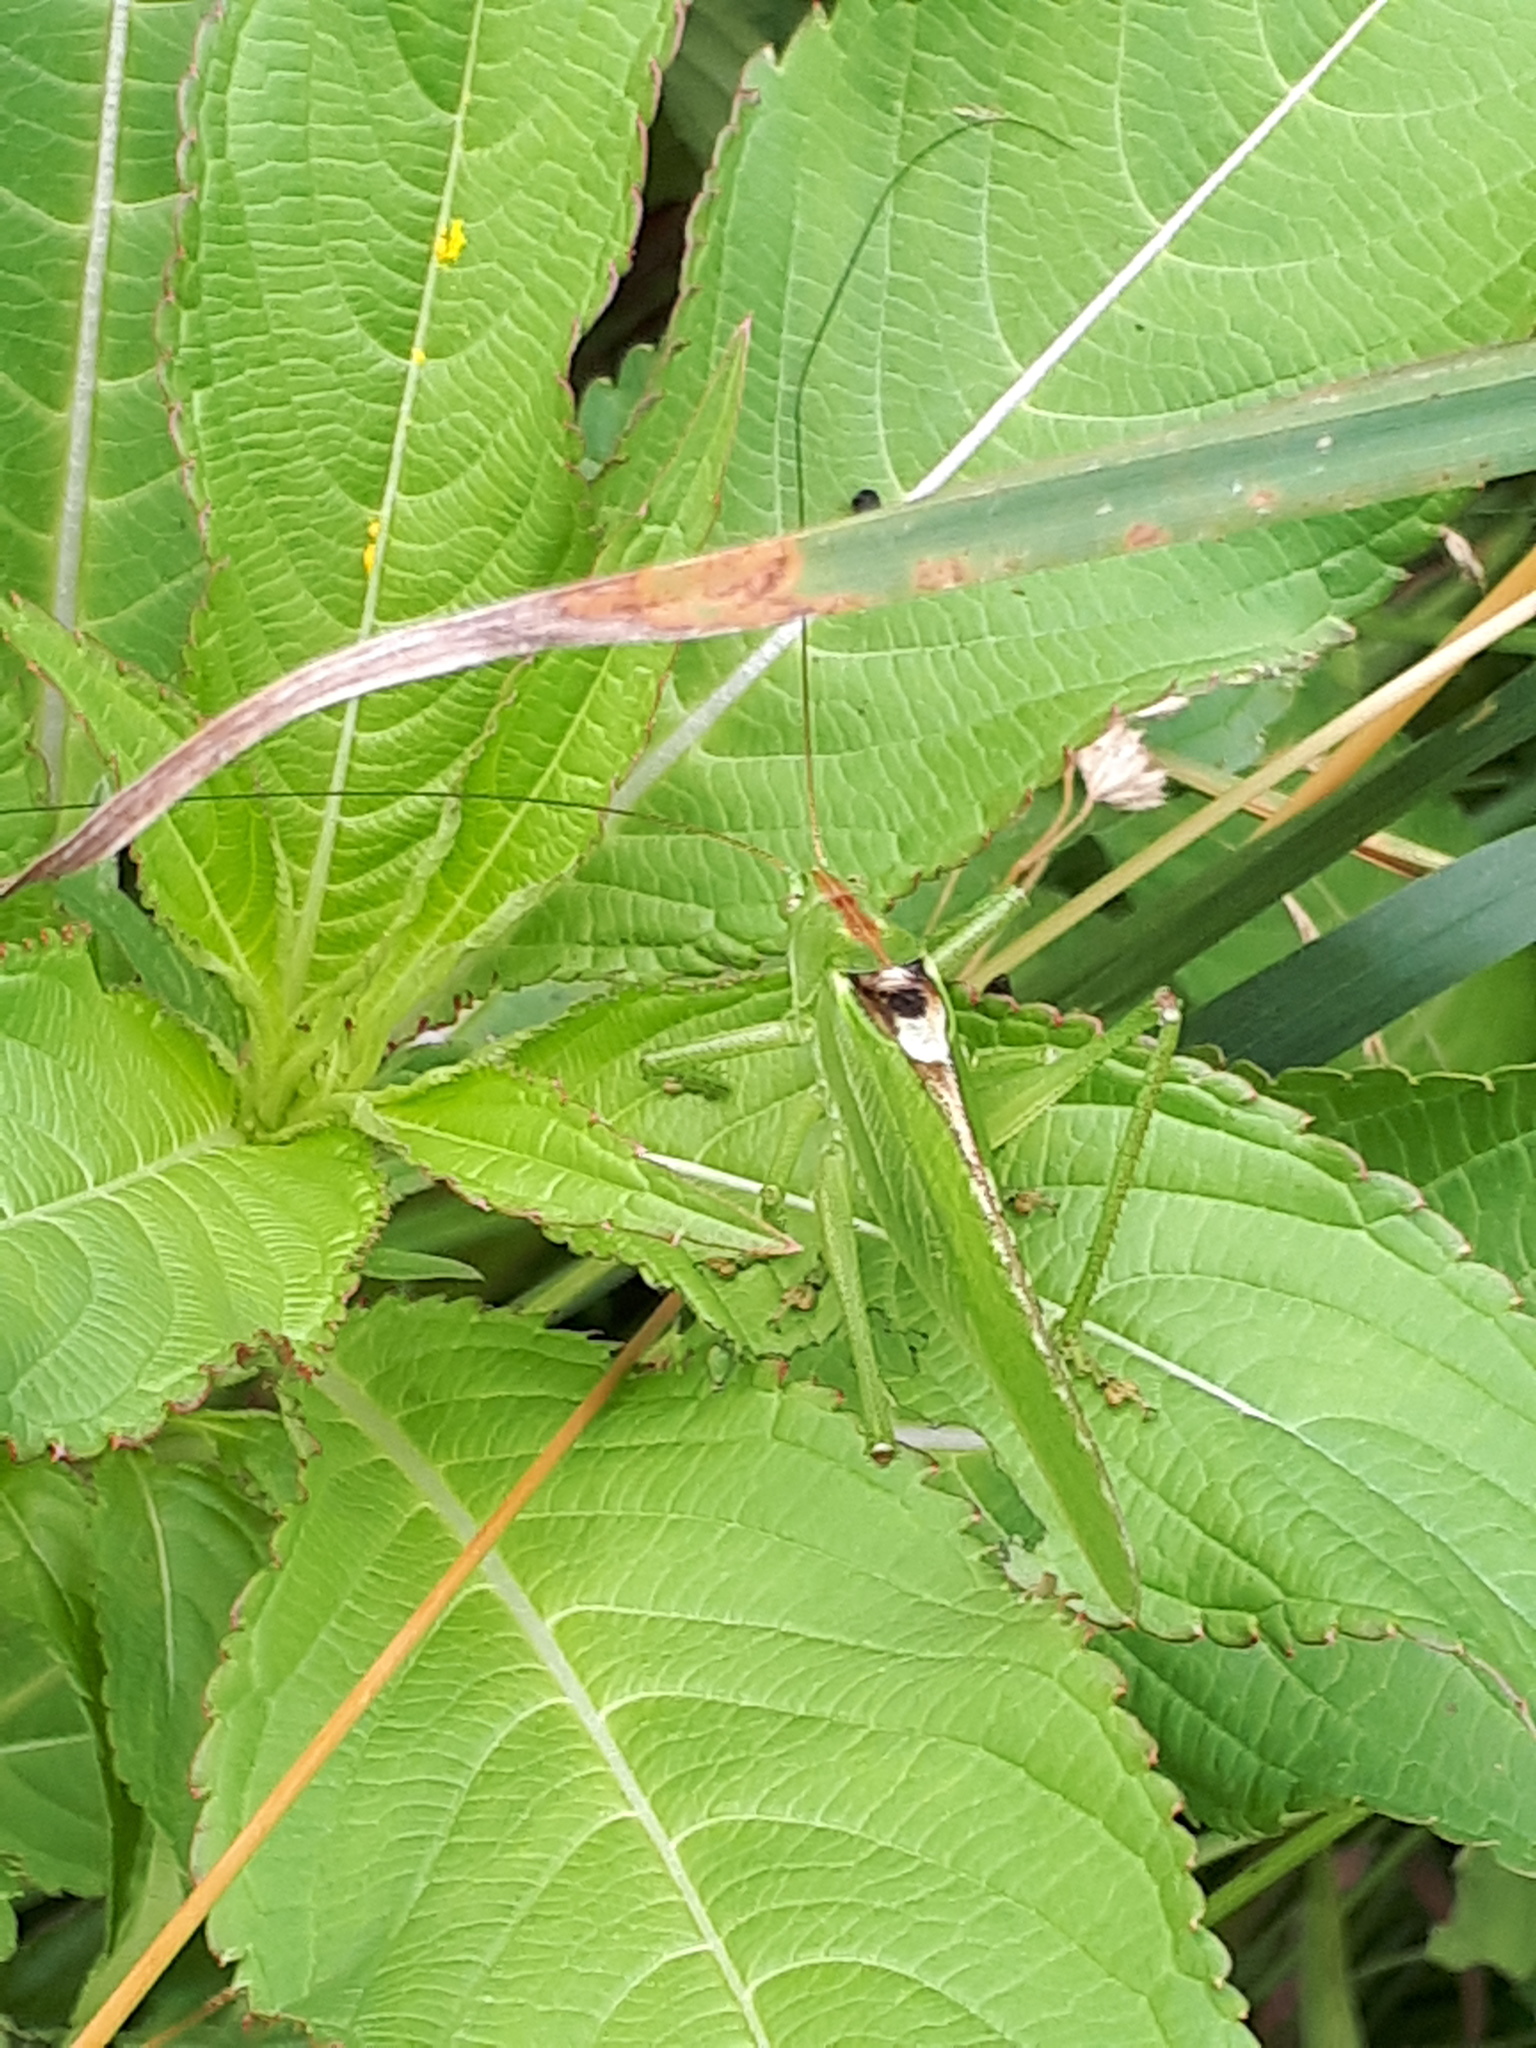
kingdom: Animalia
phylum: Arthropoda
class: Insecta
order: Orthoptera
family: Tettigoniidae
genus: Tettigonia
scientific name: Tettigonia viridissima
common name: Great green bush-cricket
